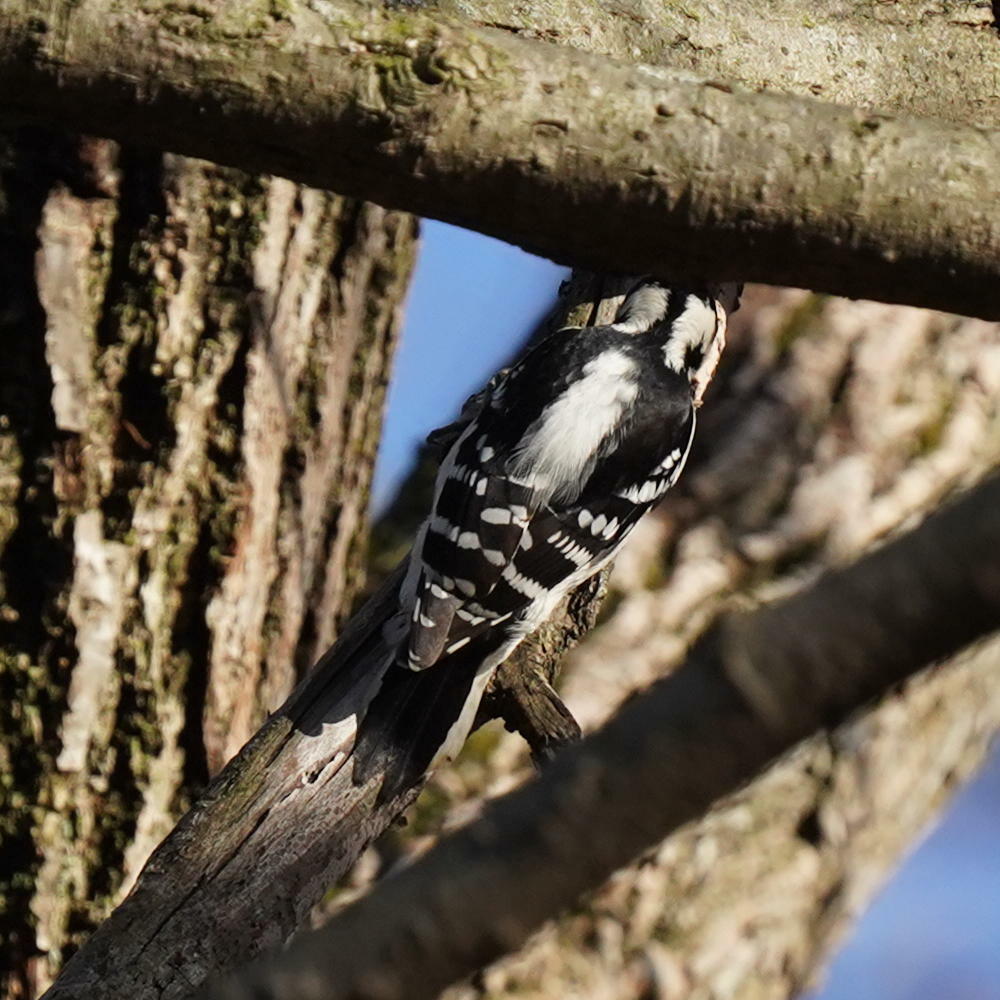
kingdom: Animalia
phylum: Chordata
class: Aves
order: Piciformes
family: Picidae
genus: Dryobates
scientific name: Dryobates pubescens
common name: Downy woodpecker
